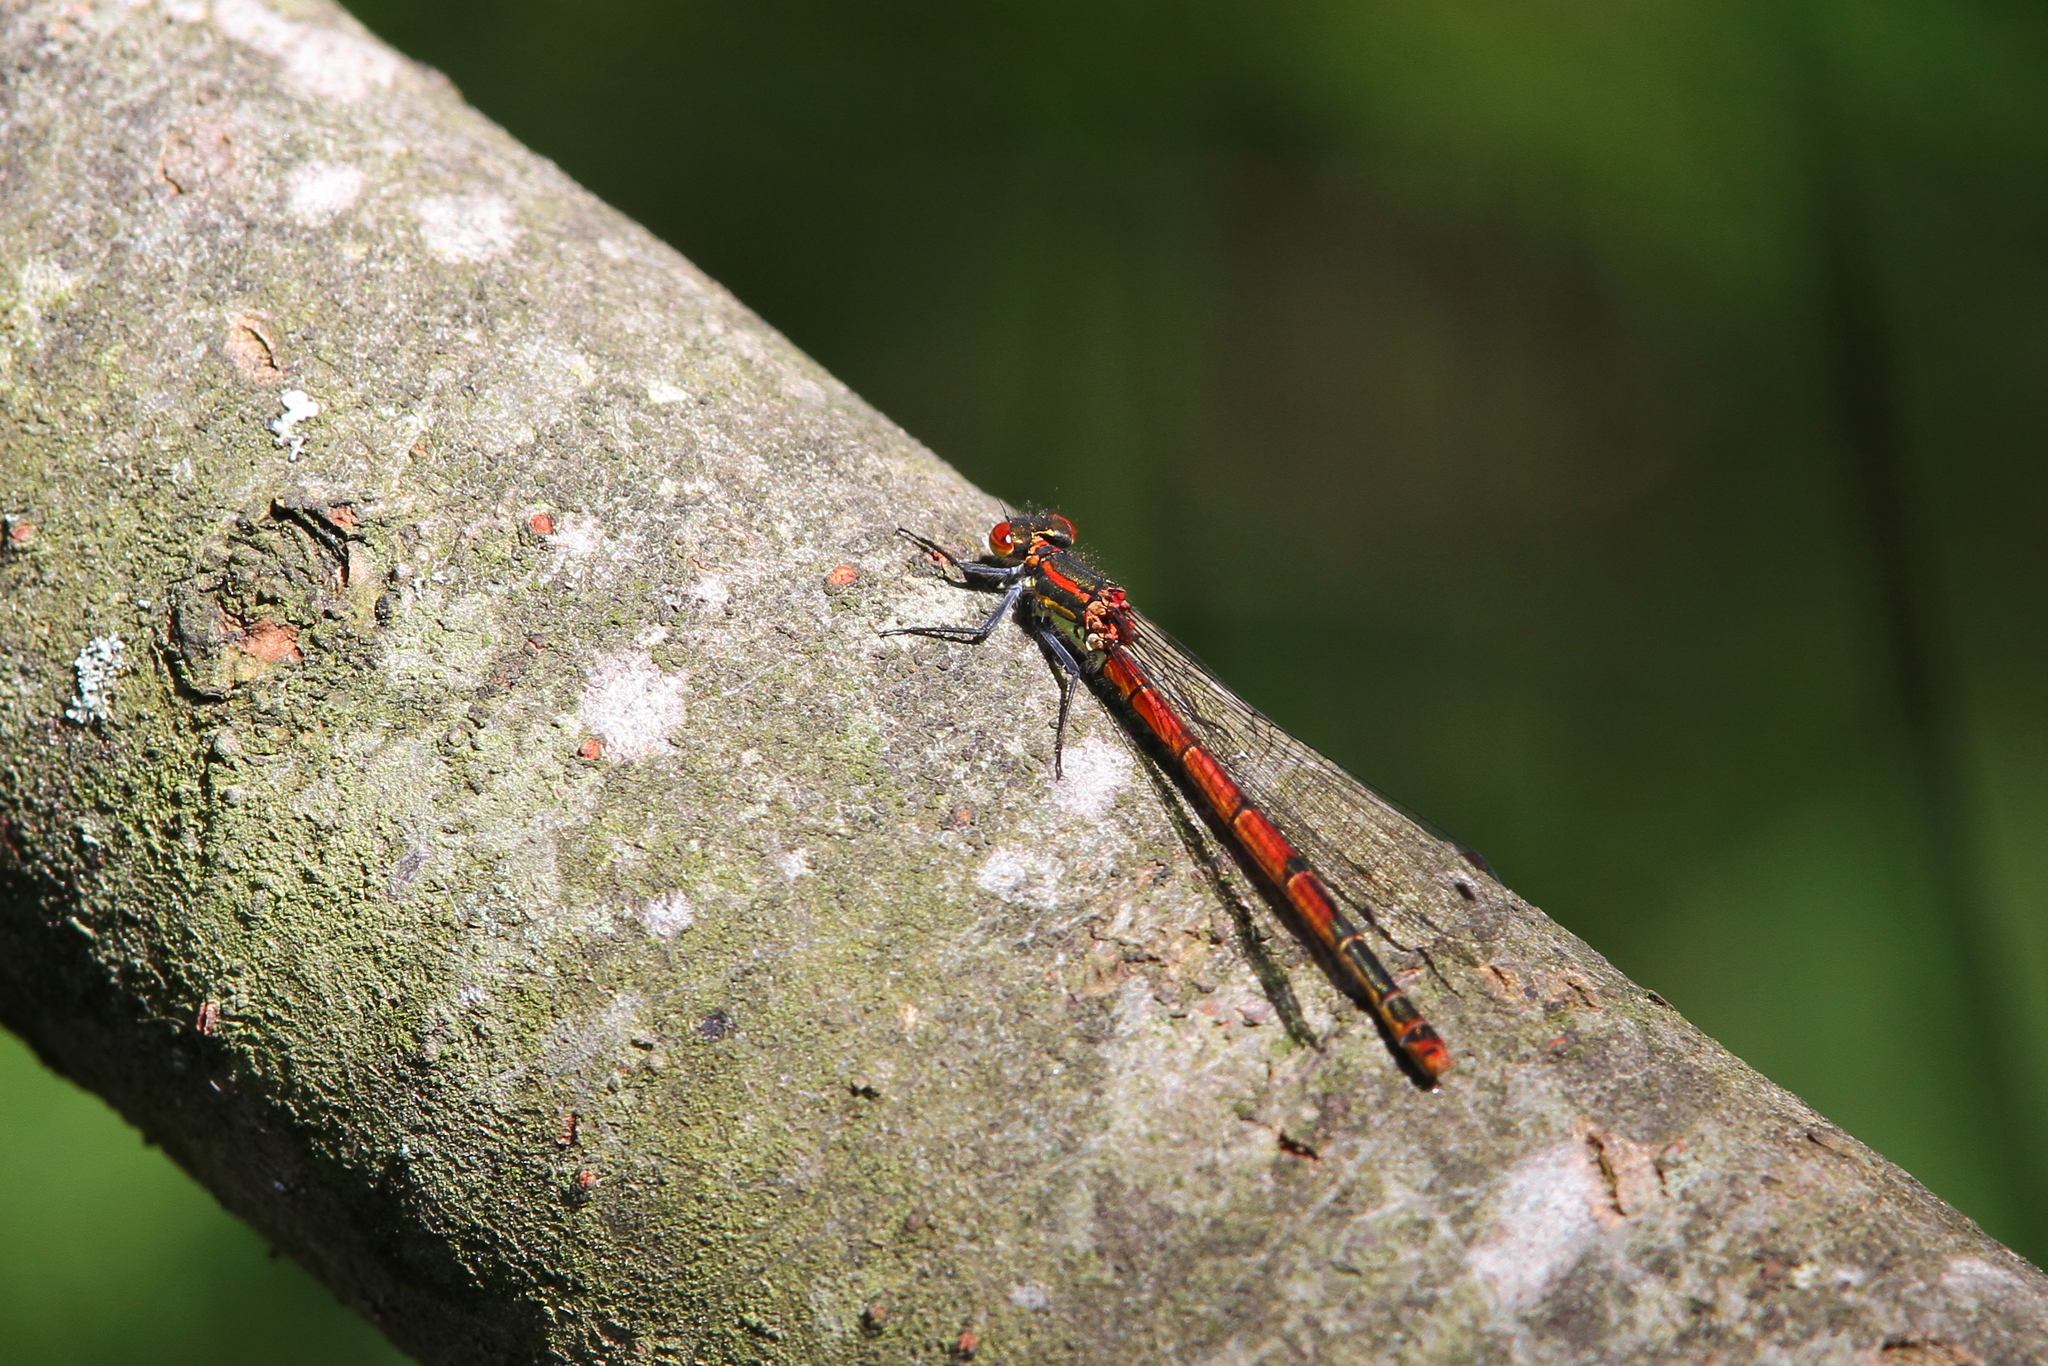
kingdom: Animalia
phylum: Arthropoda
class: Insecta
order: Odonata
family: Coenagrionidae
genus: Pyrrhosoma
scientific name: Pyrrhosoma nymphula
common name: Large red damsel
